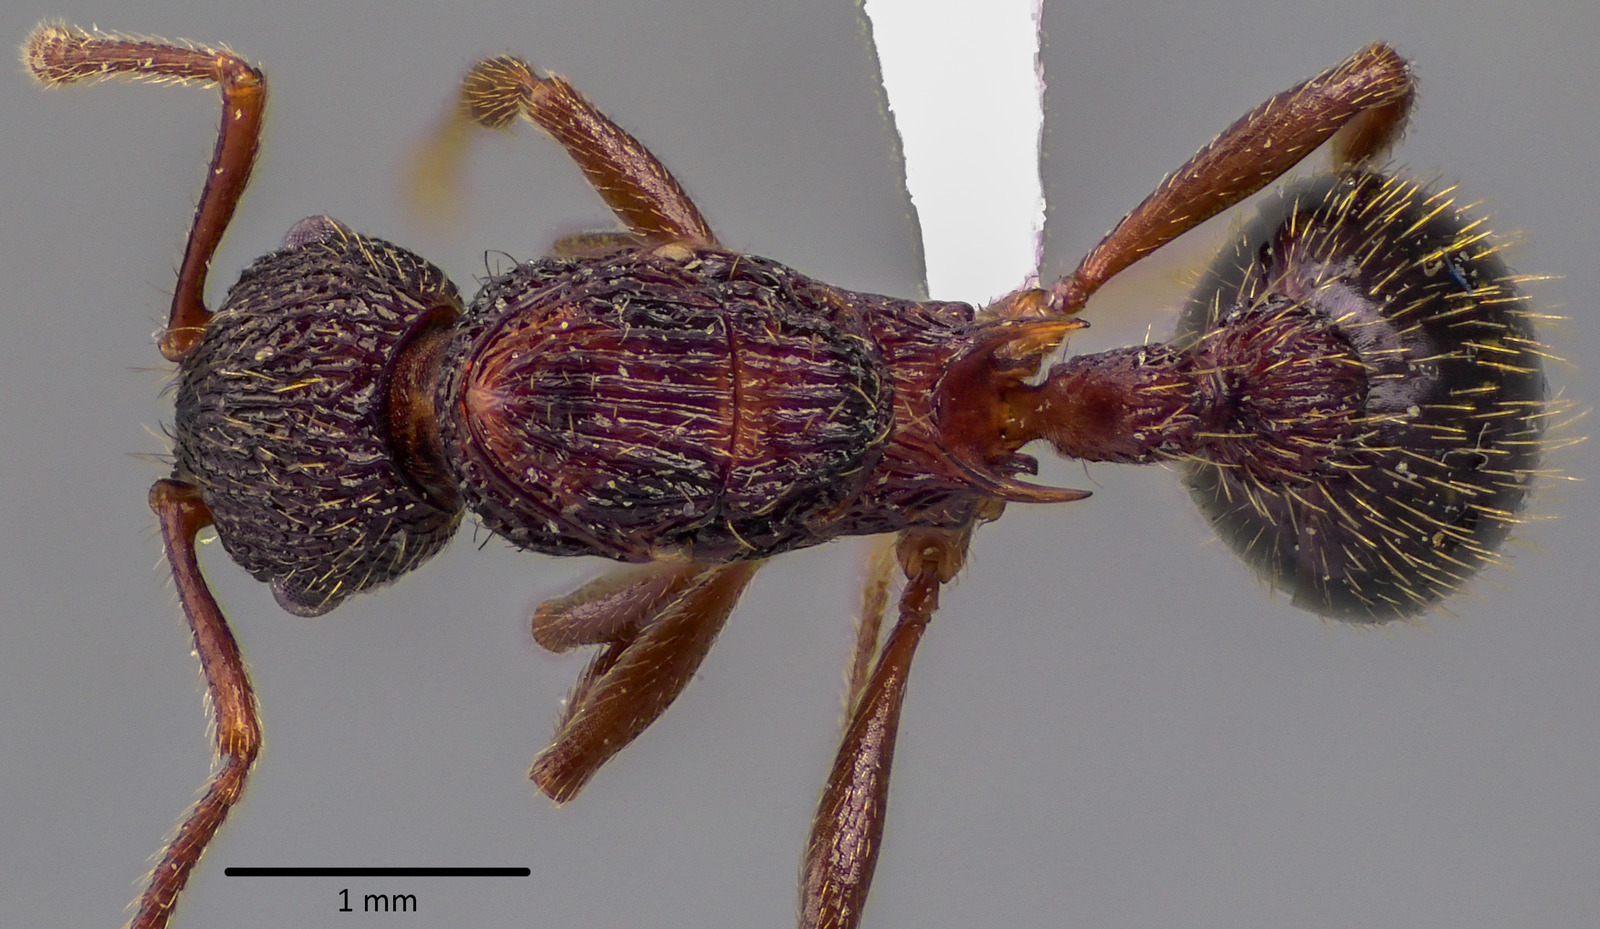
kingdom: Animalia
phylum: Arthropoda
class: Insecta
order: Hymenoptera
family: Formicidae
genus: Myrmica
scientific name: Myrmica spatulata
